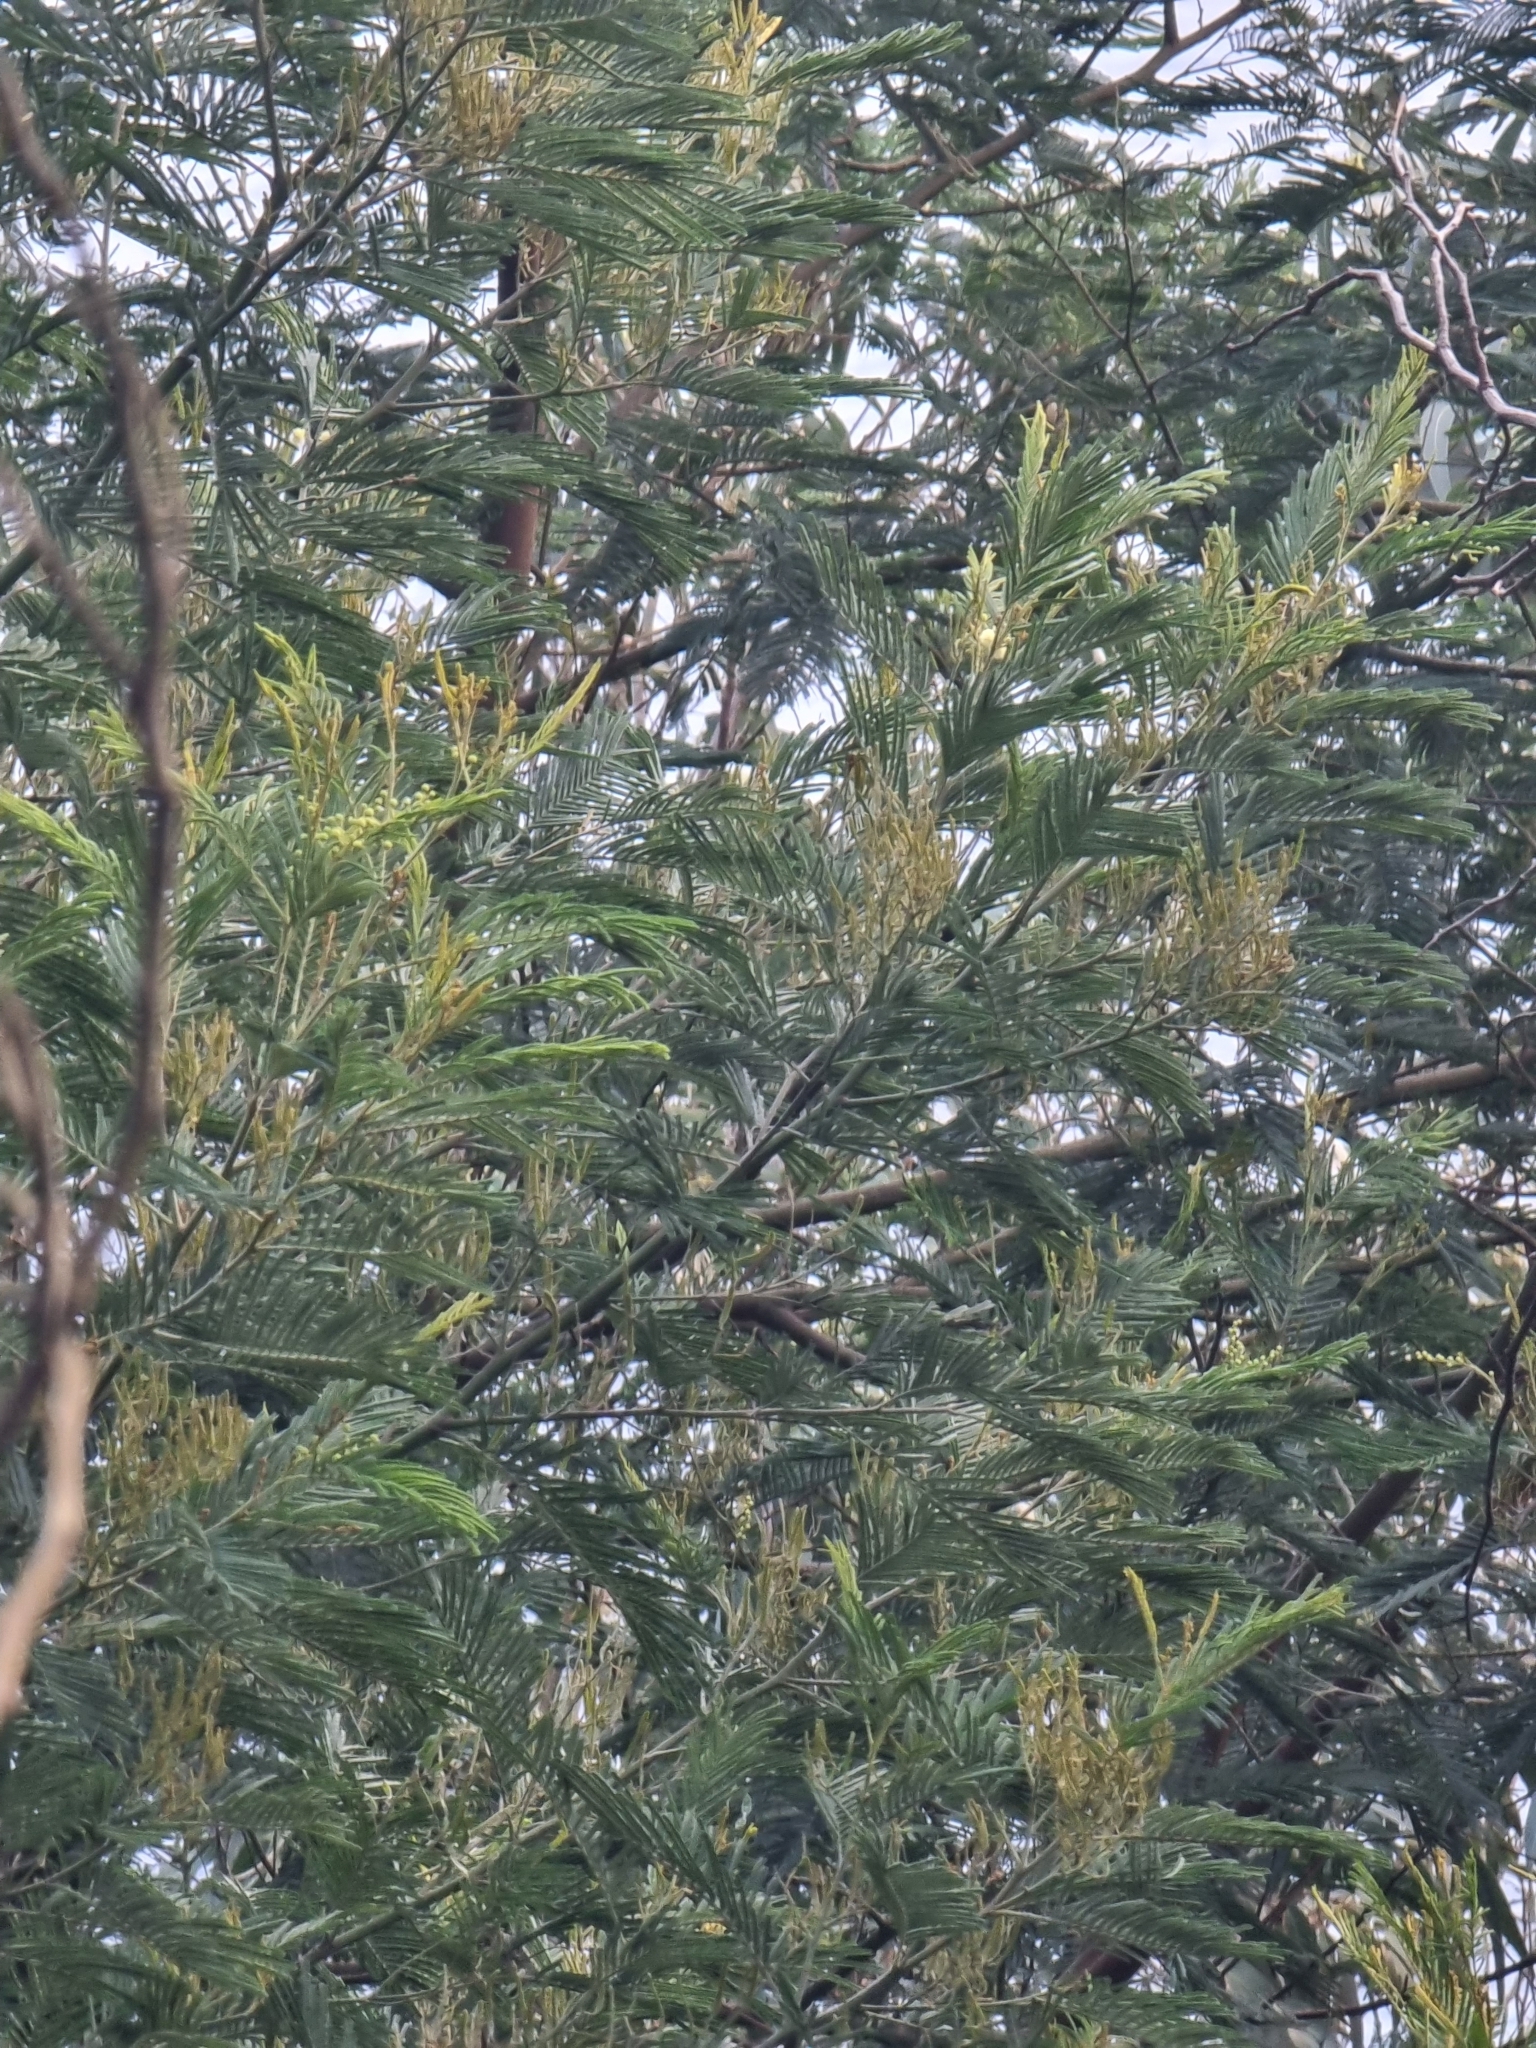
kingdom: Plantae
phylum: Tracheophyta
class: Magnoliopsida
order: Fabales
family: Fabaceae
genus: Acacia
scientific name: Acacia mearnsii
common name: Black wattle
